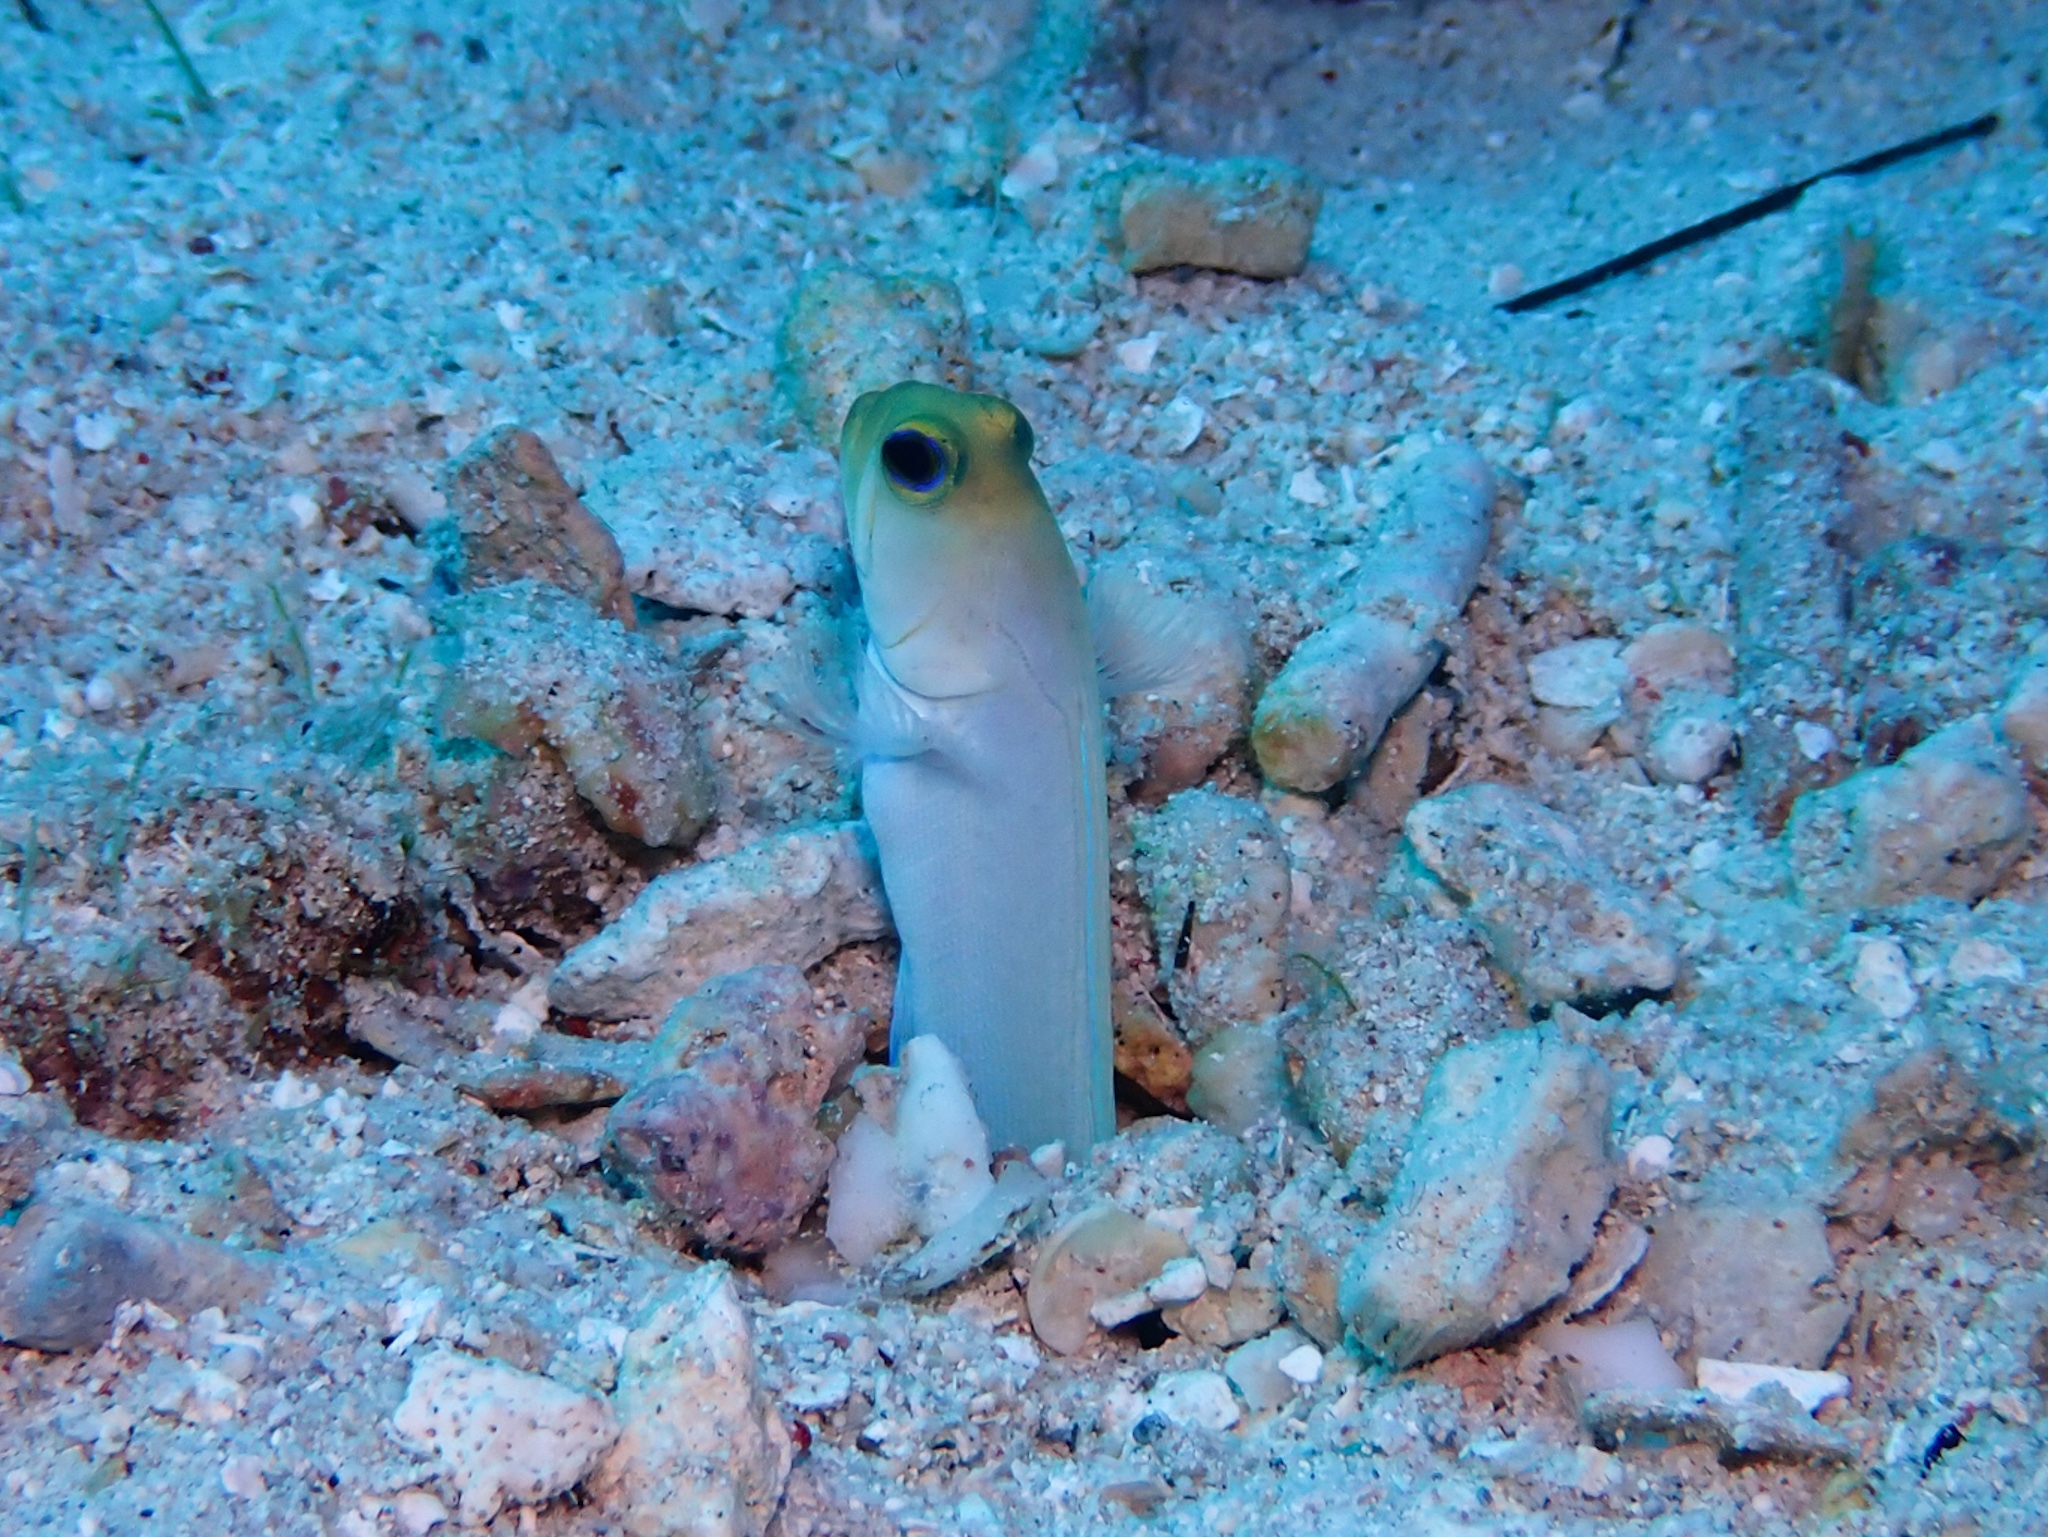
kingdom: Animalia
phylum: Chordata
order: Perciformes
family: Opistognathidae
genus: Opistognathus
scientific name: Opistognathus aurifrons
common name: Yellowhead jawfish
